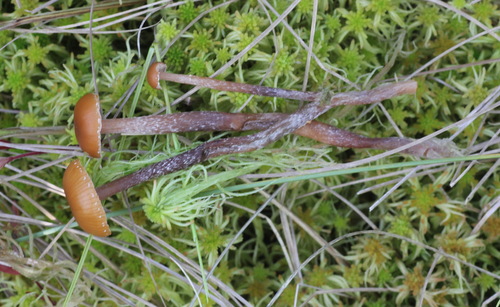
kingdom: Fungi
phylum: Basidiomycota
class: Agaricomycetes
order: Agaricales
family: Hymenogastraceae
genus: Phaeogalera
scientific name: Phaeogalera stagnina
